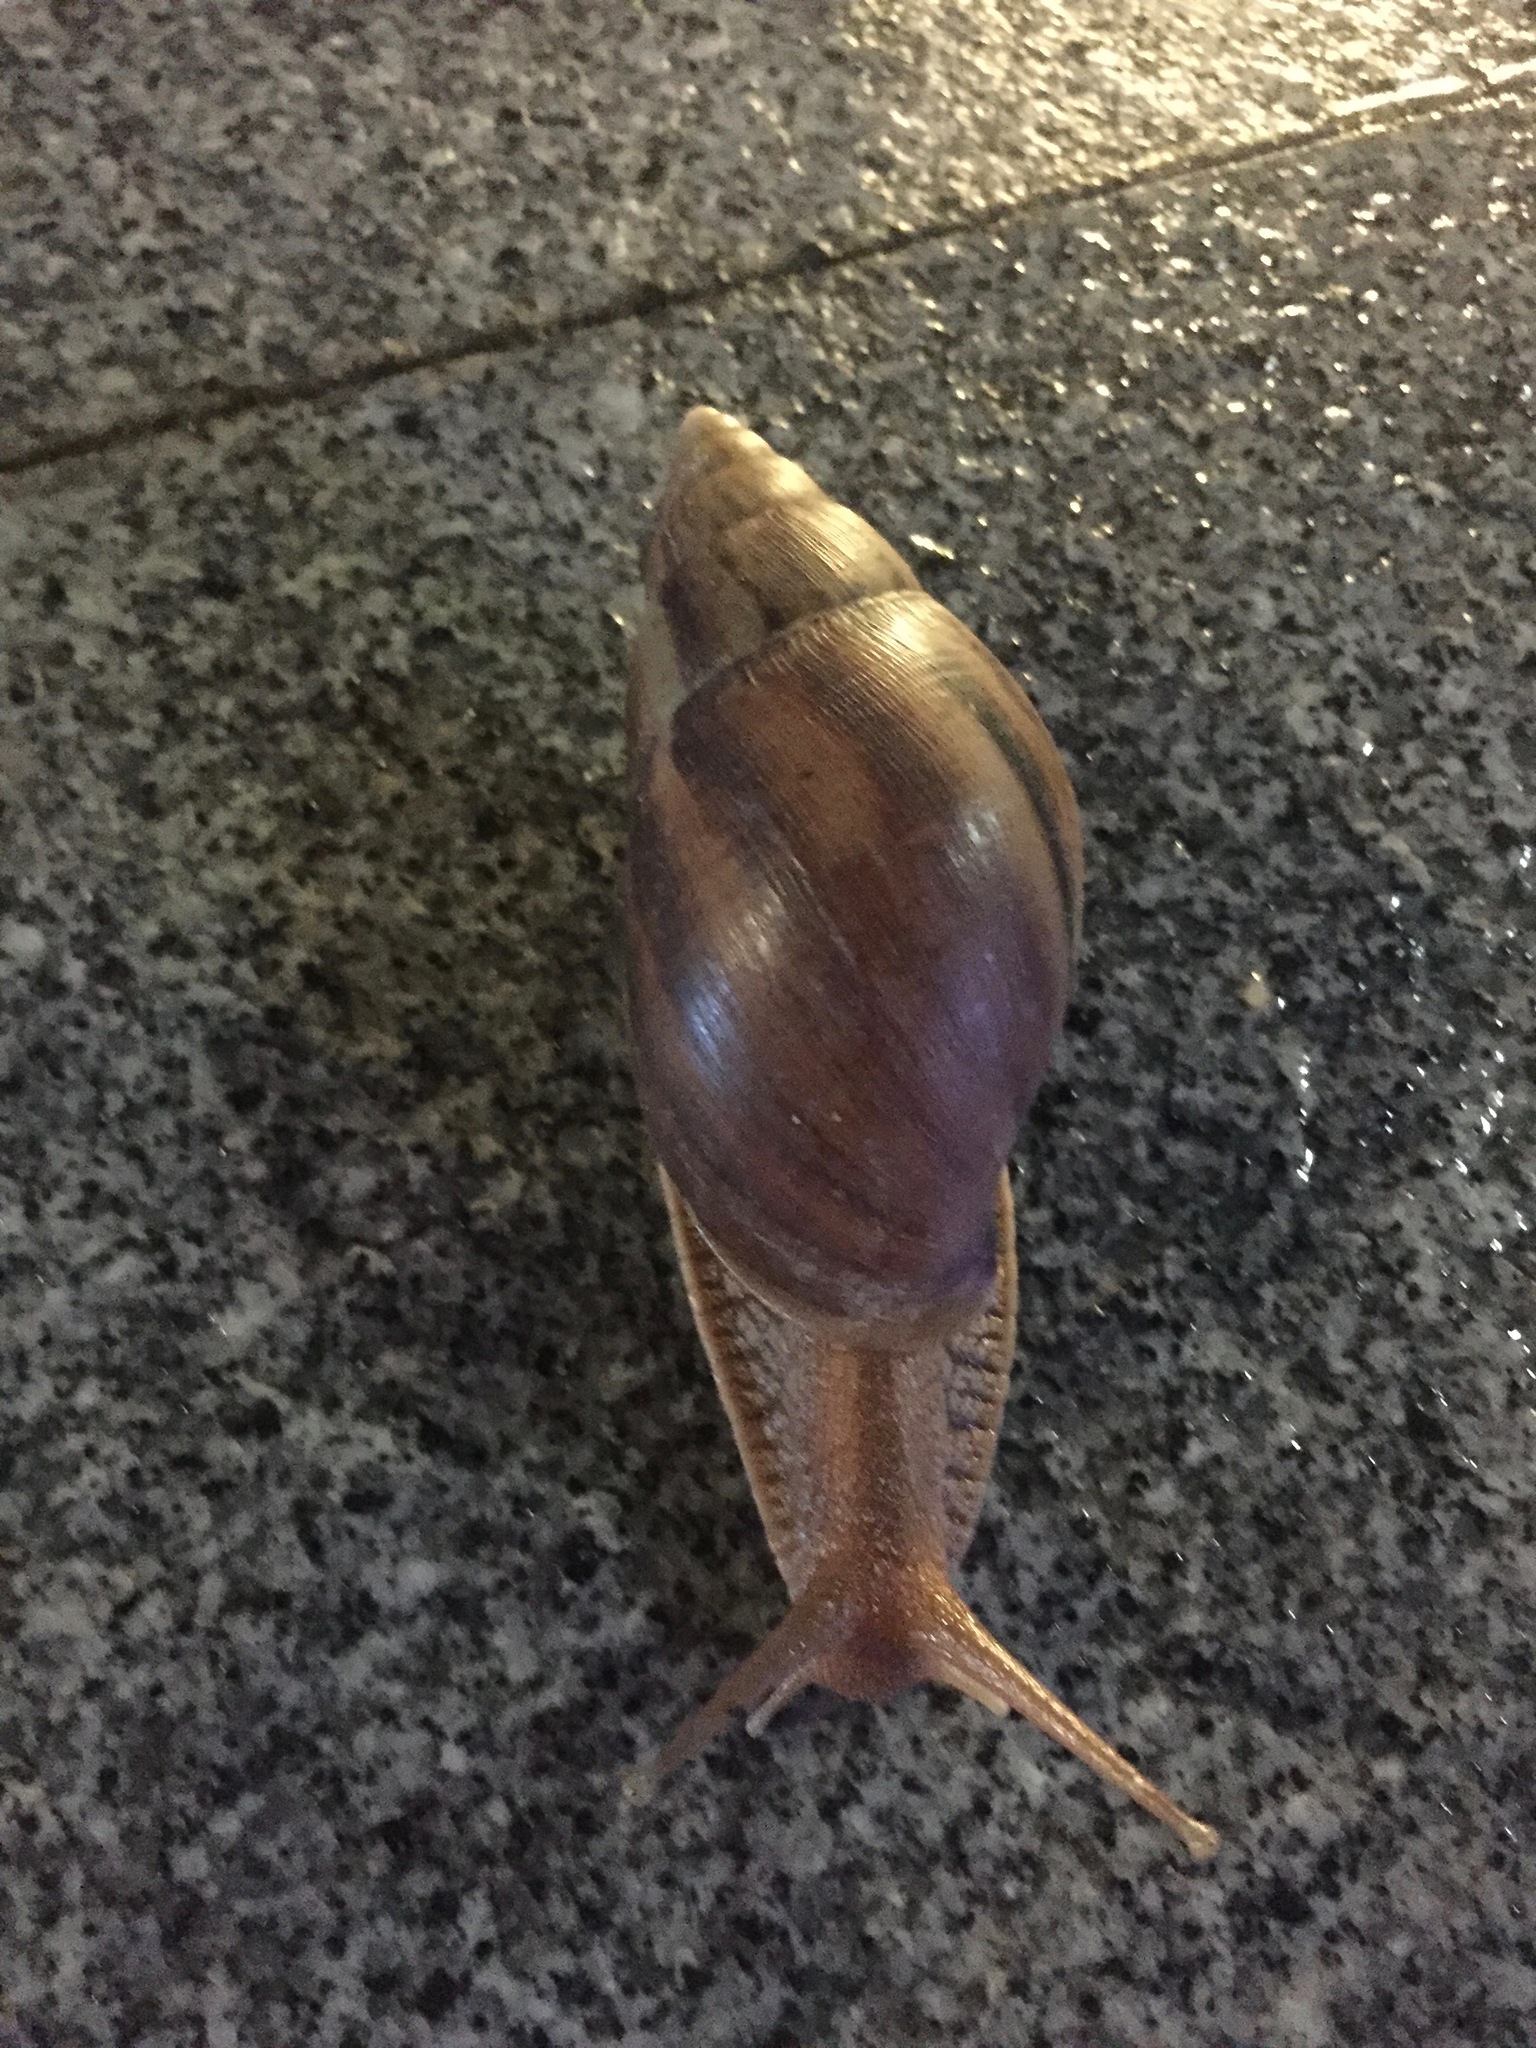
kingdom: Animalia
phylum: Mollusca
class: Gastropoda
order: Stylommatophora
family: Achatinidae
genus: Lissachatina
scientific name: Lissachatina immaculata
